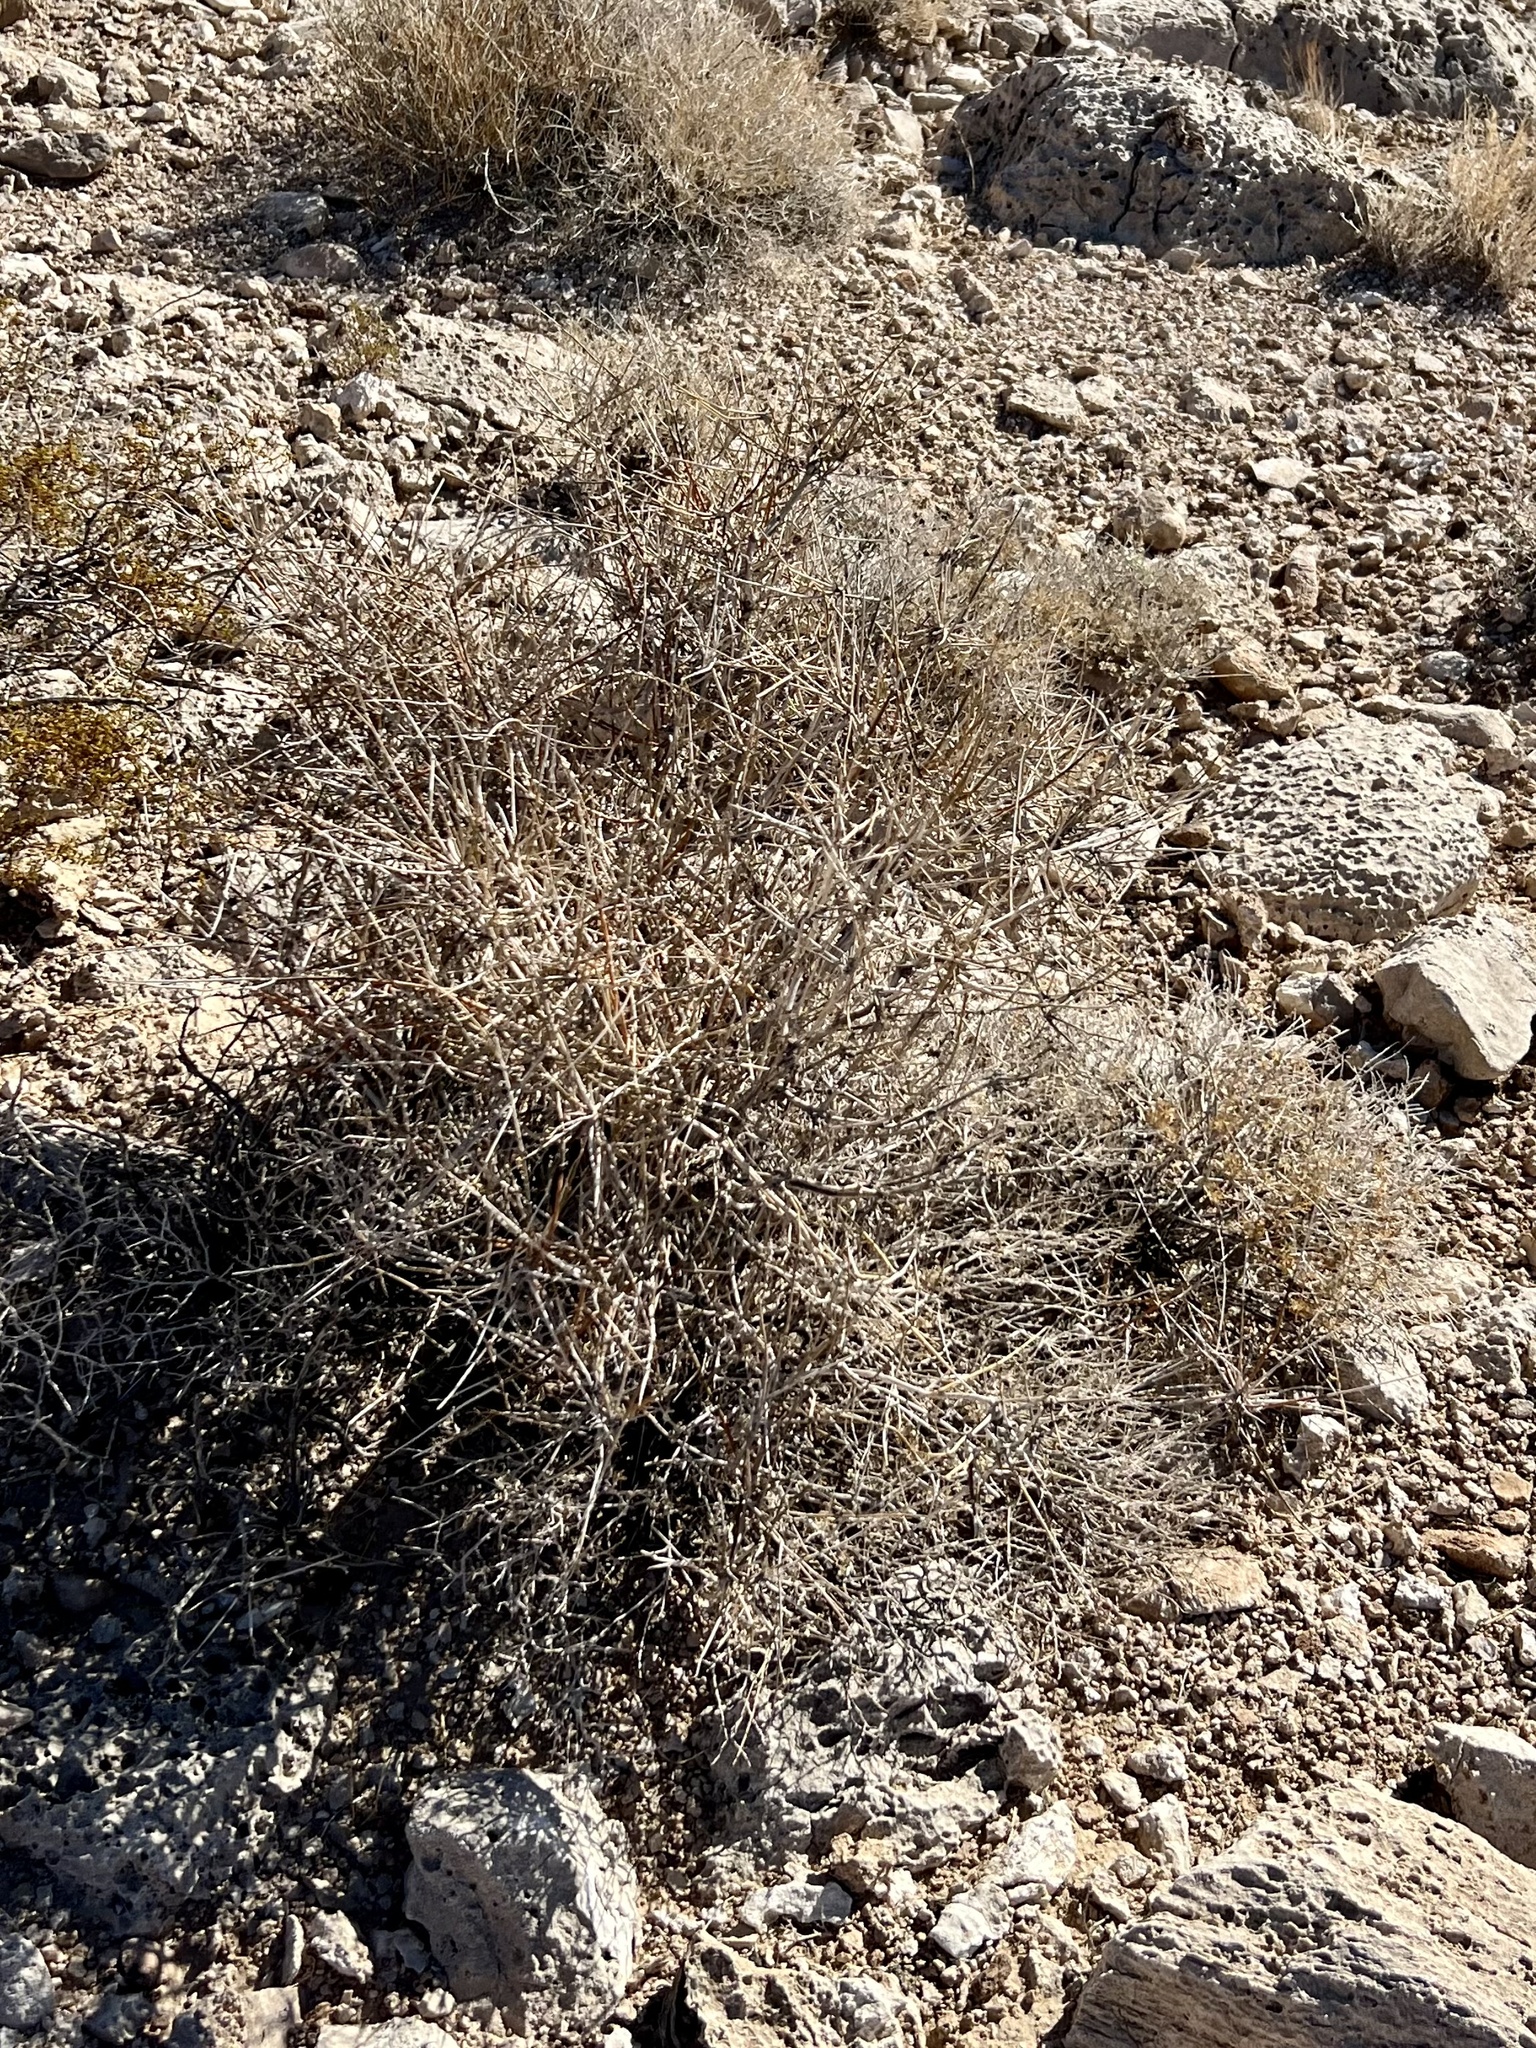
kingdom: Plantae
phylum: Tracheophyta
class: Gnetopsida
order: Ephedrales
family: Ephedraceae
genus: Ephedra
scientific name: Ephedra nevadensis
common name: Gray ephedra
